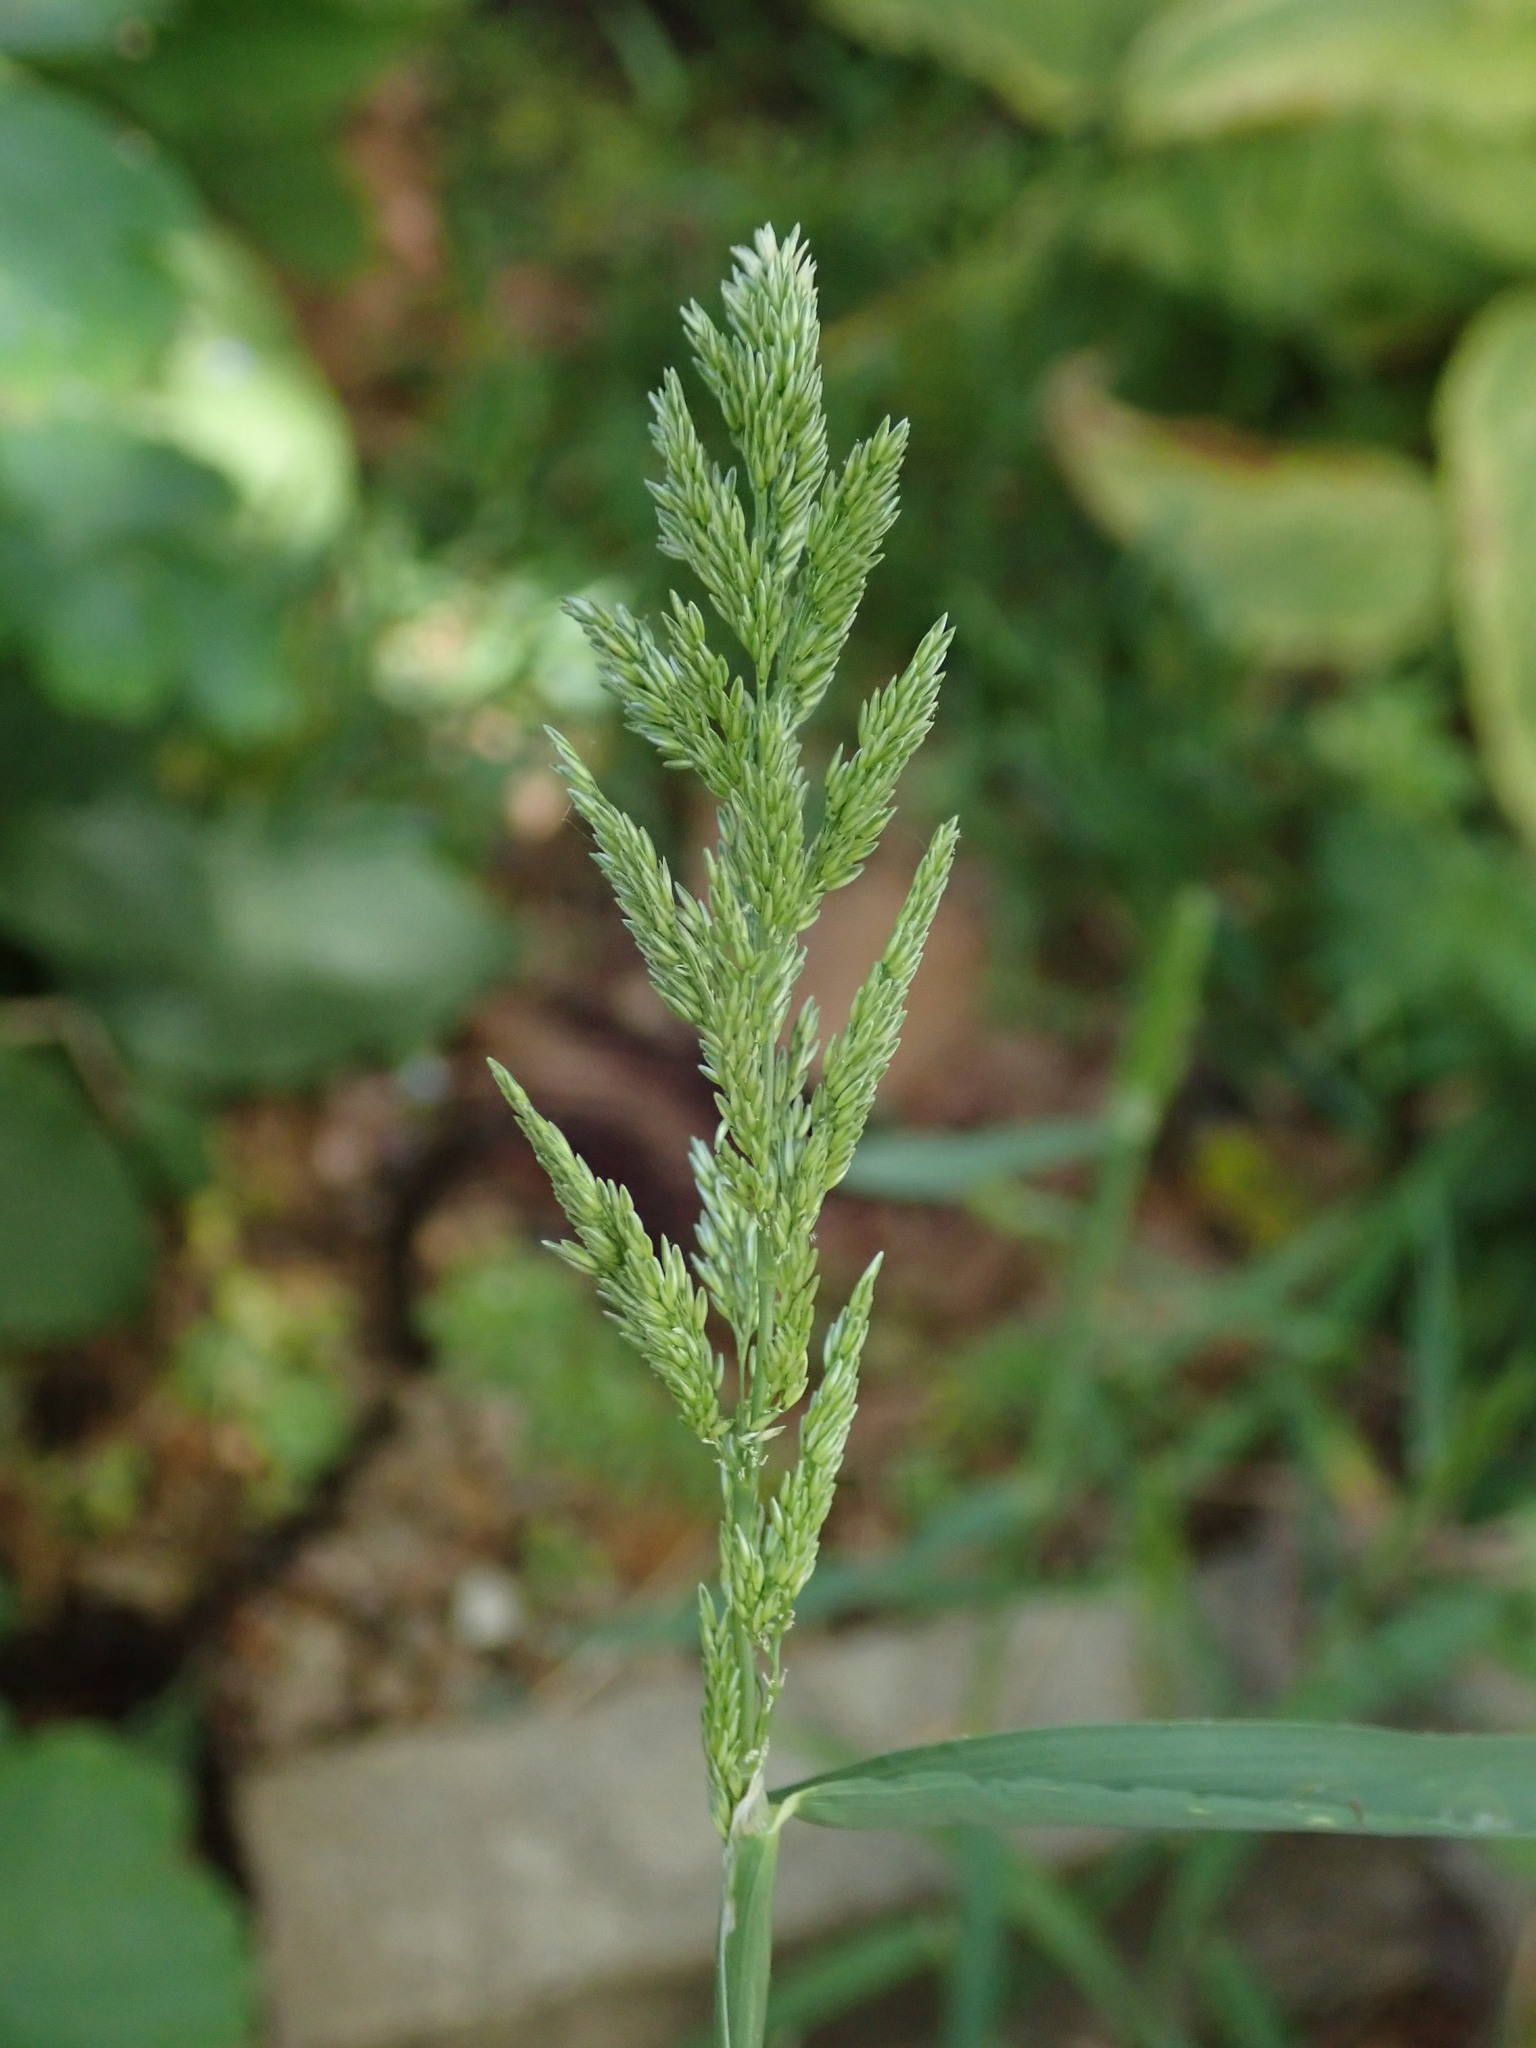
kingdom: Plantae
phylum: Tracheophyta
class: Liliopsida
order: Poales
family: Poaceae
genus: Polypogon
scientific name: Polypogon viridis
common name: Water bent
